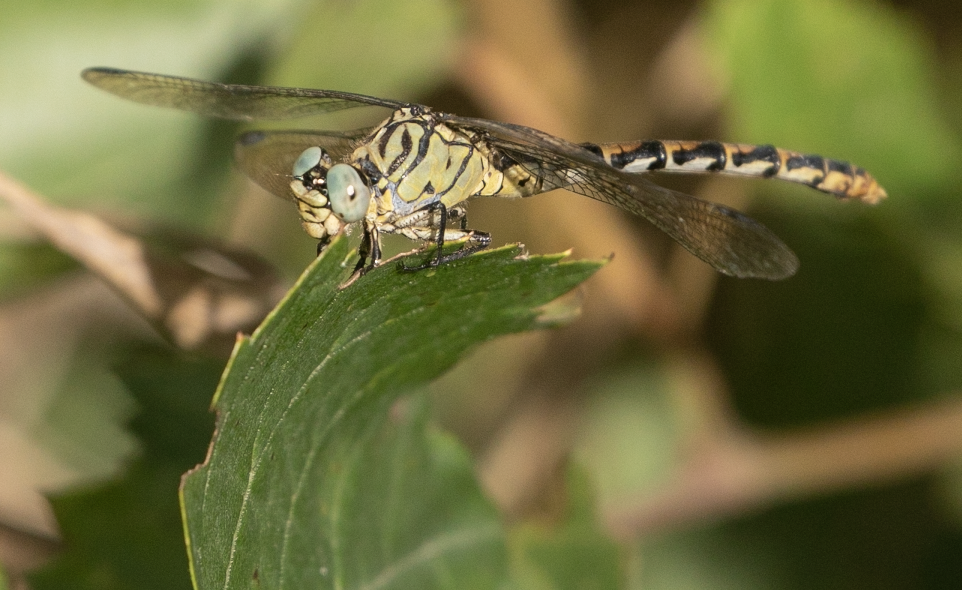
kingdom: Animalia
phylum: Arthropoda
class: Insecta
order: Odonata
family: Gomphidae
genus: Onychogomphus
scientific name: Onychogomphus forcipatus
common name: Small pincertail
